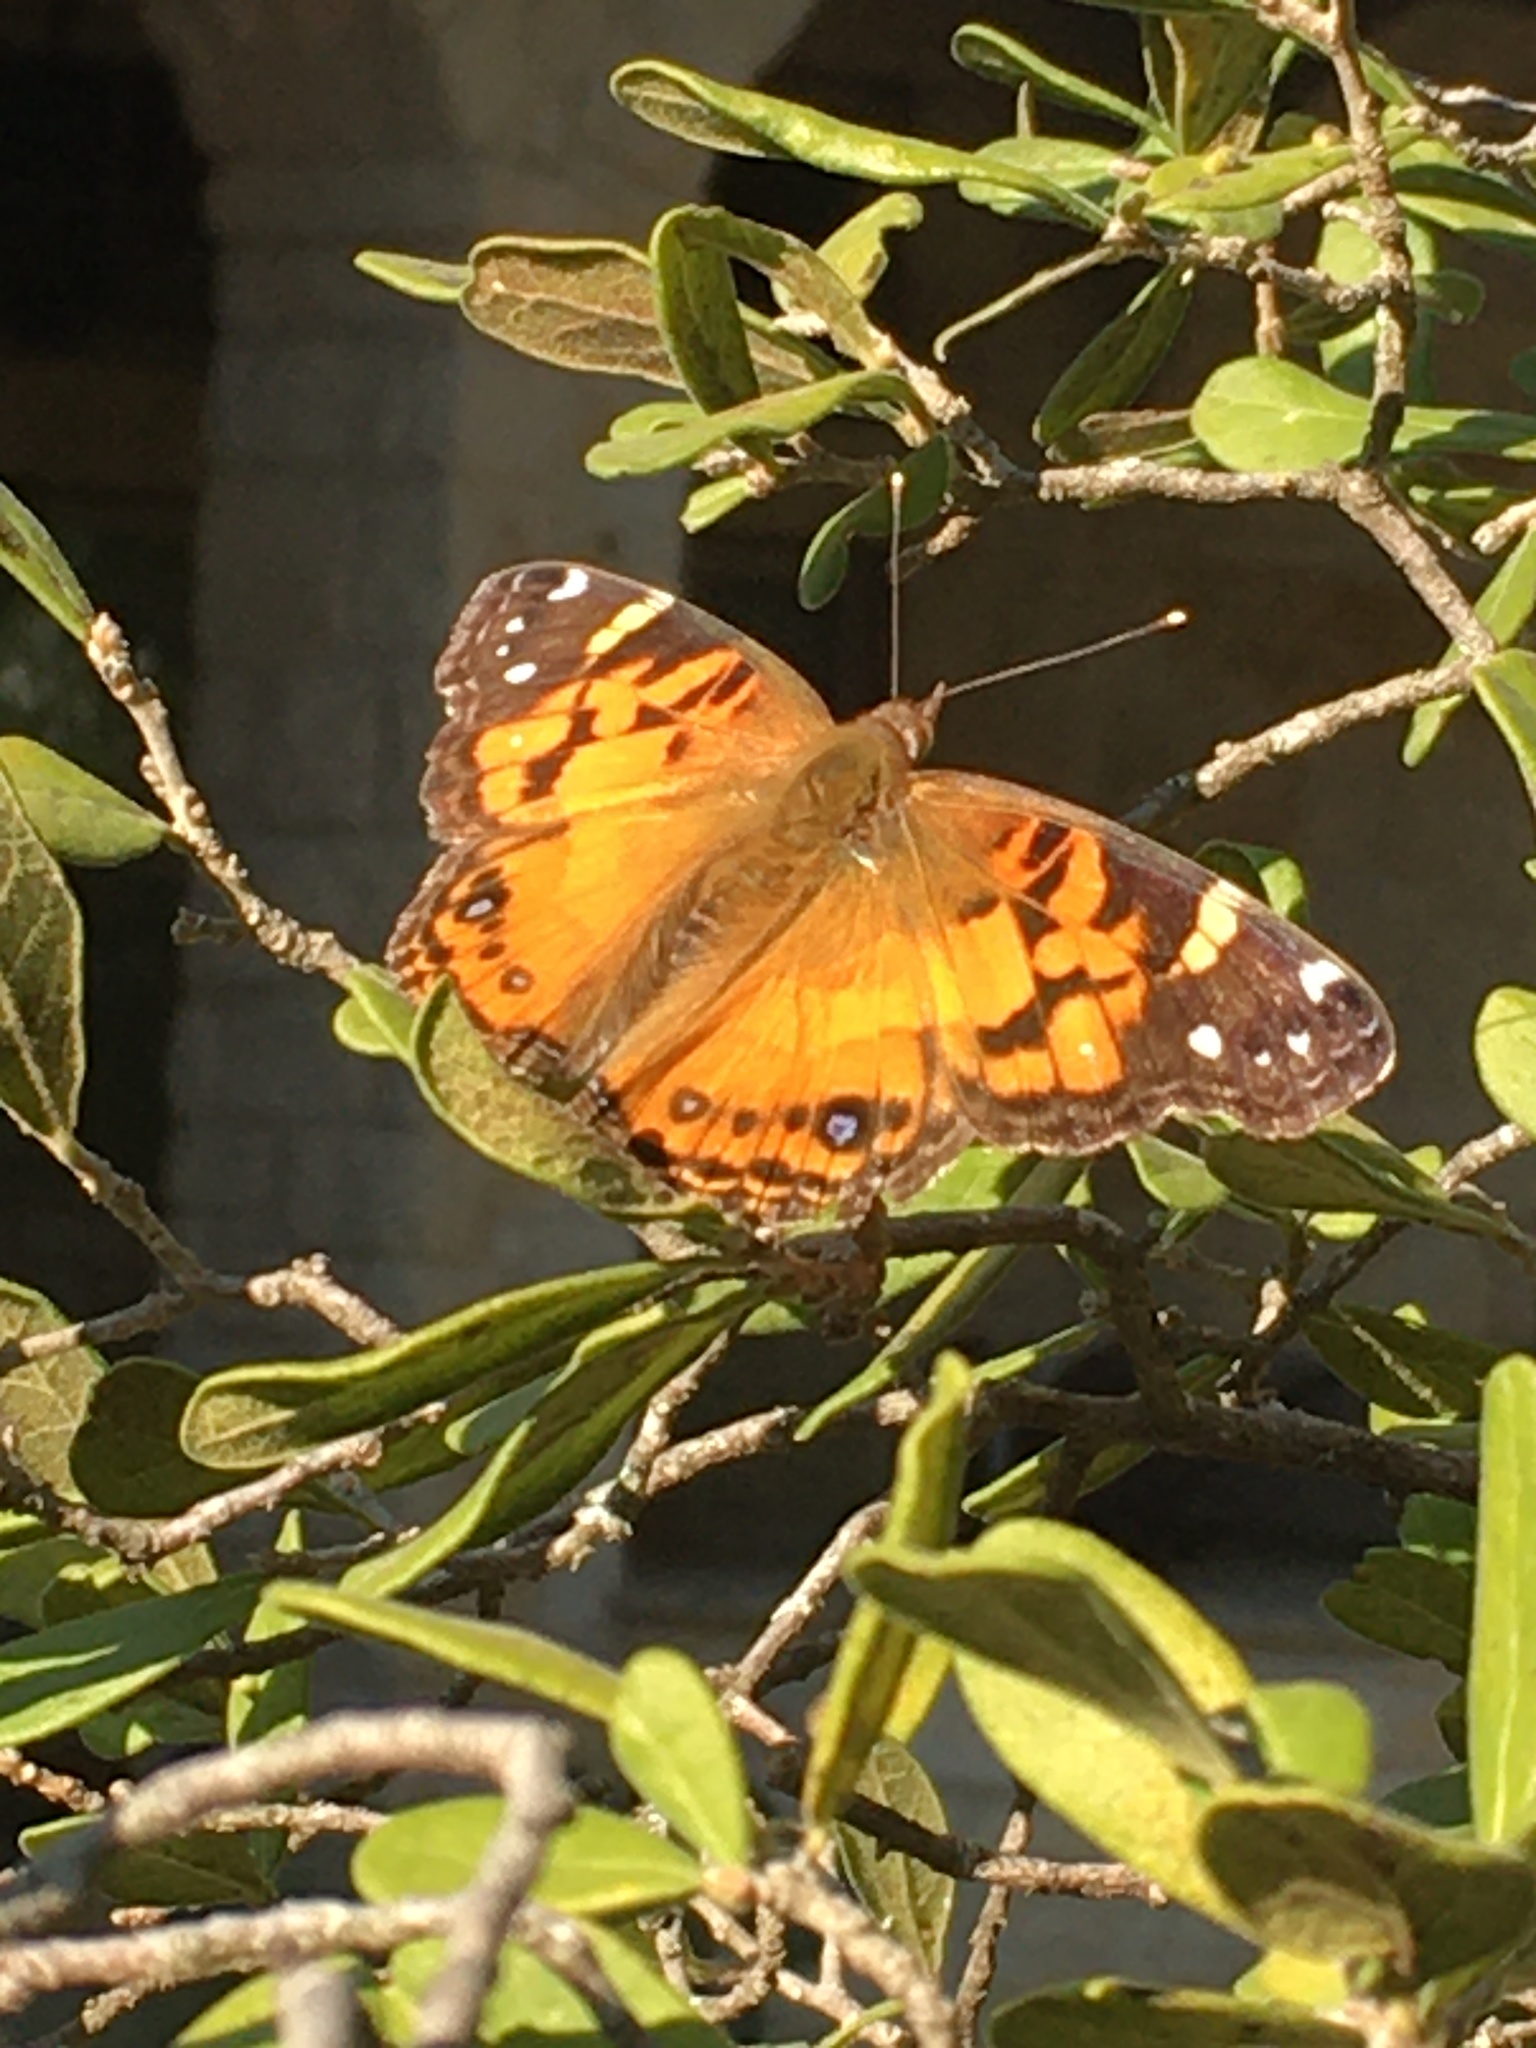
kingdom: Animalia
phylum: Arthropoda
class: Insecta
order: Lepidoptera
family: Nymphalidae
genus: Vanessa
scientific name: Vanessa virginiensis
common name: American lady
